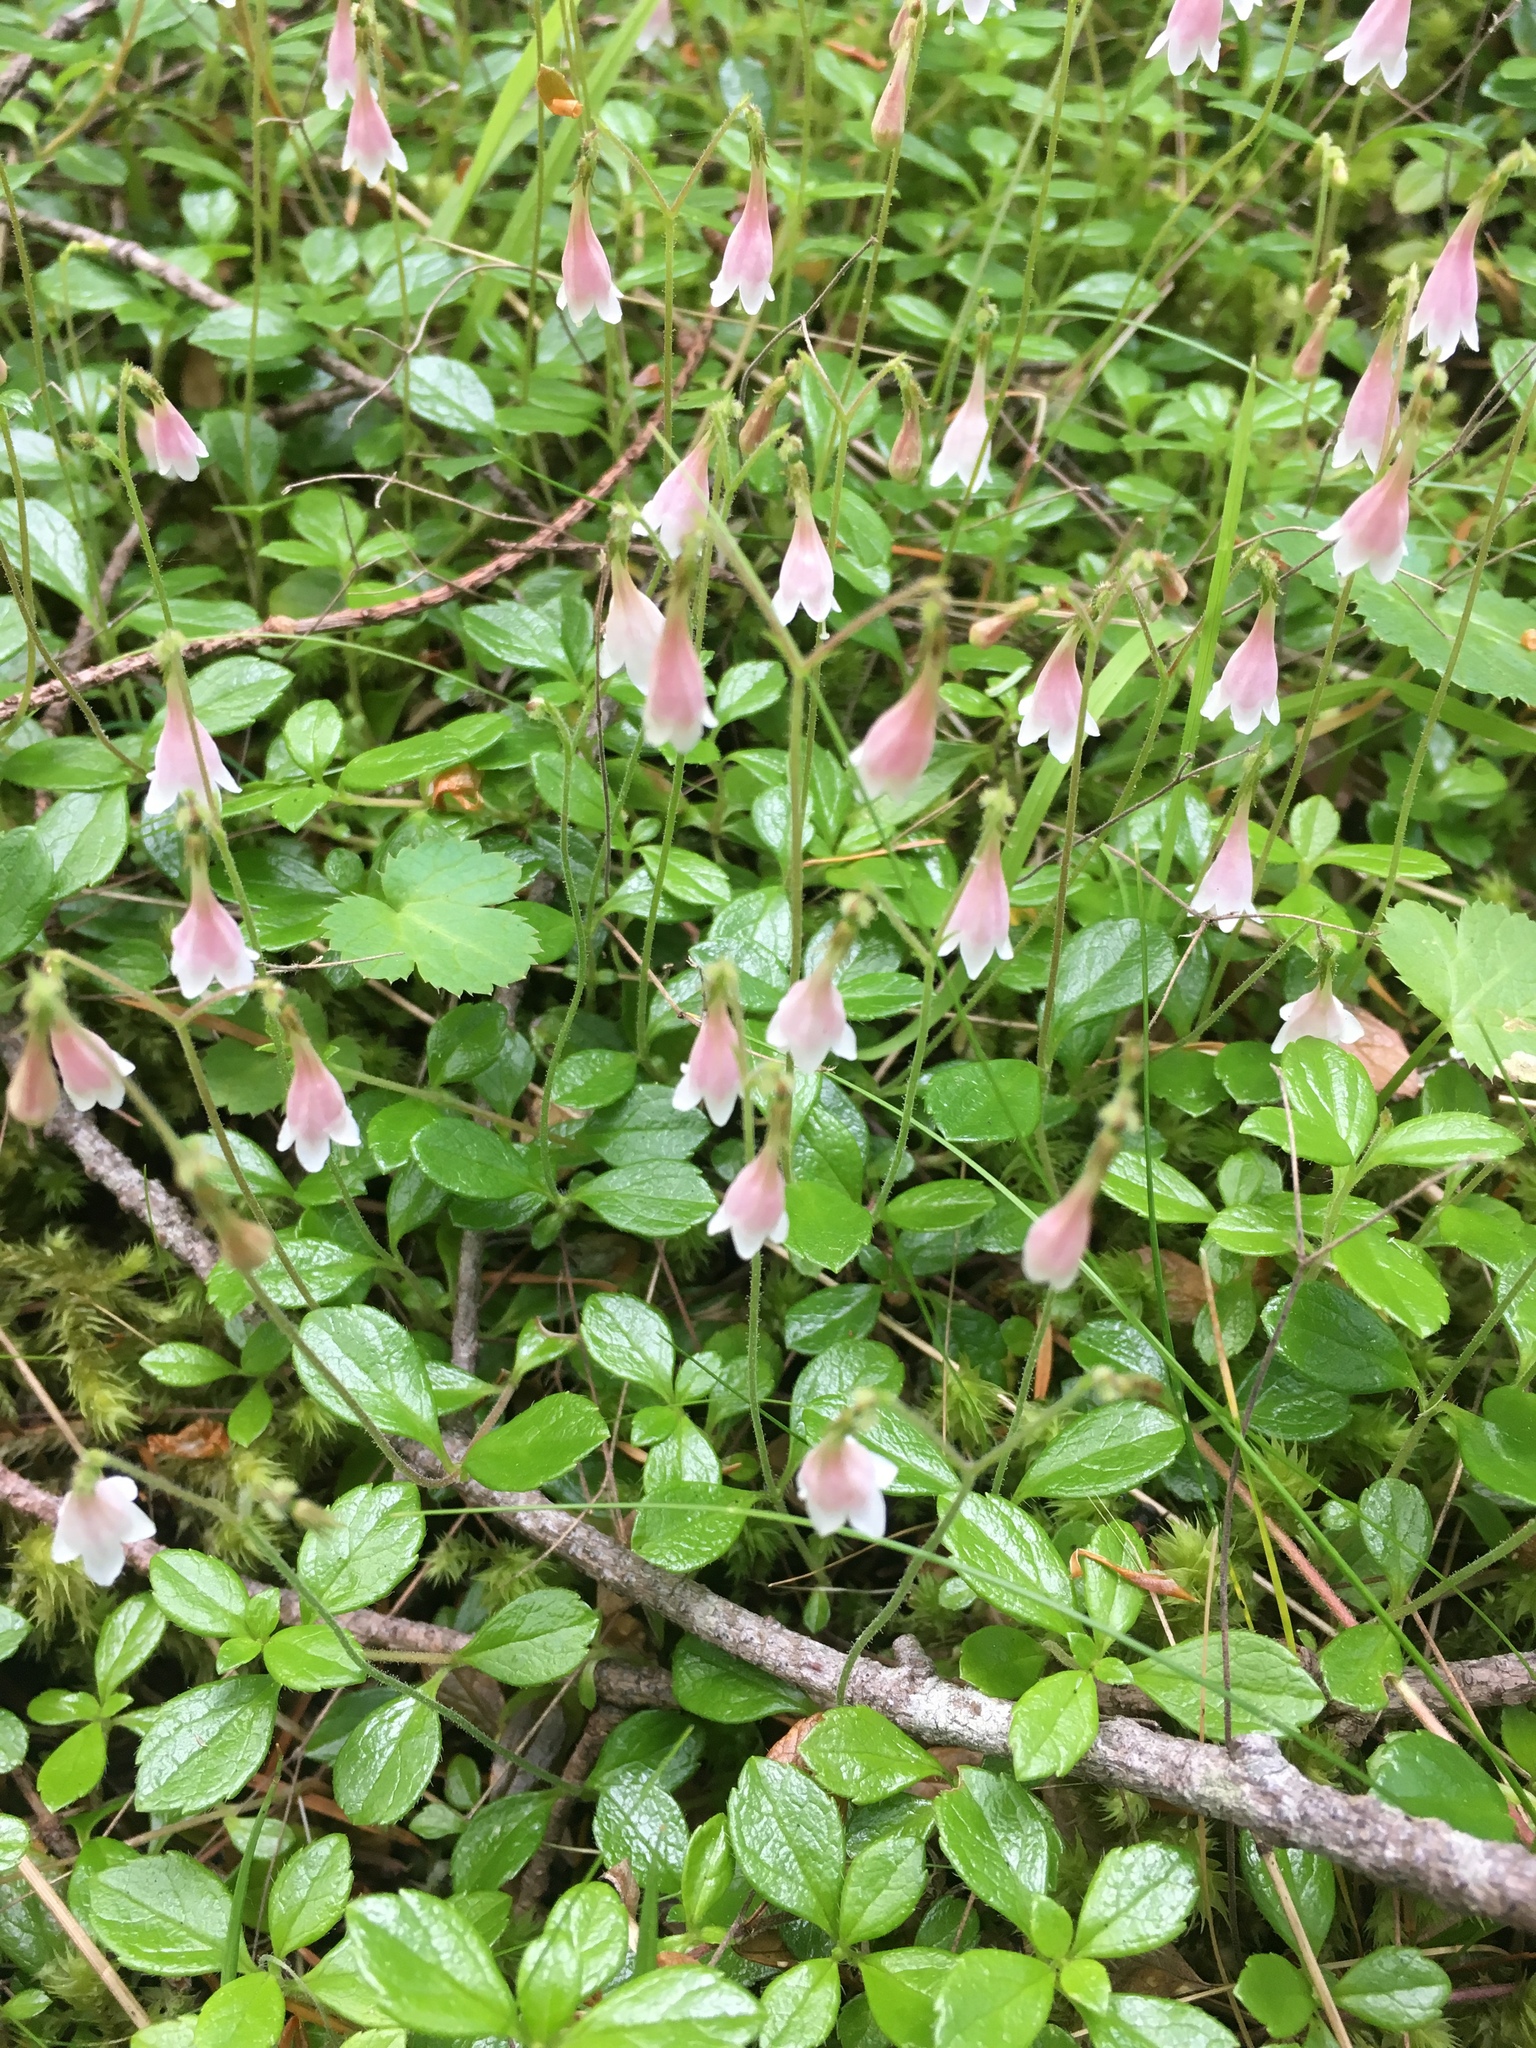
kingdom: Plantae
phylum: Tracheophyta
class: Magnoliopsida
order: Dipsacales
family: Caprifoliaceae
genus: Linnaea
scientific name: Linnaea borealis
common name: Twinflower
